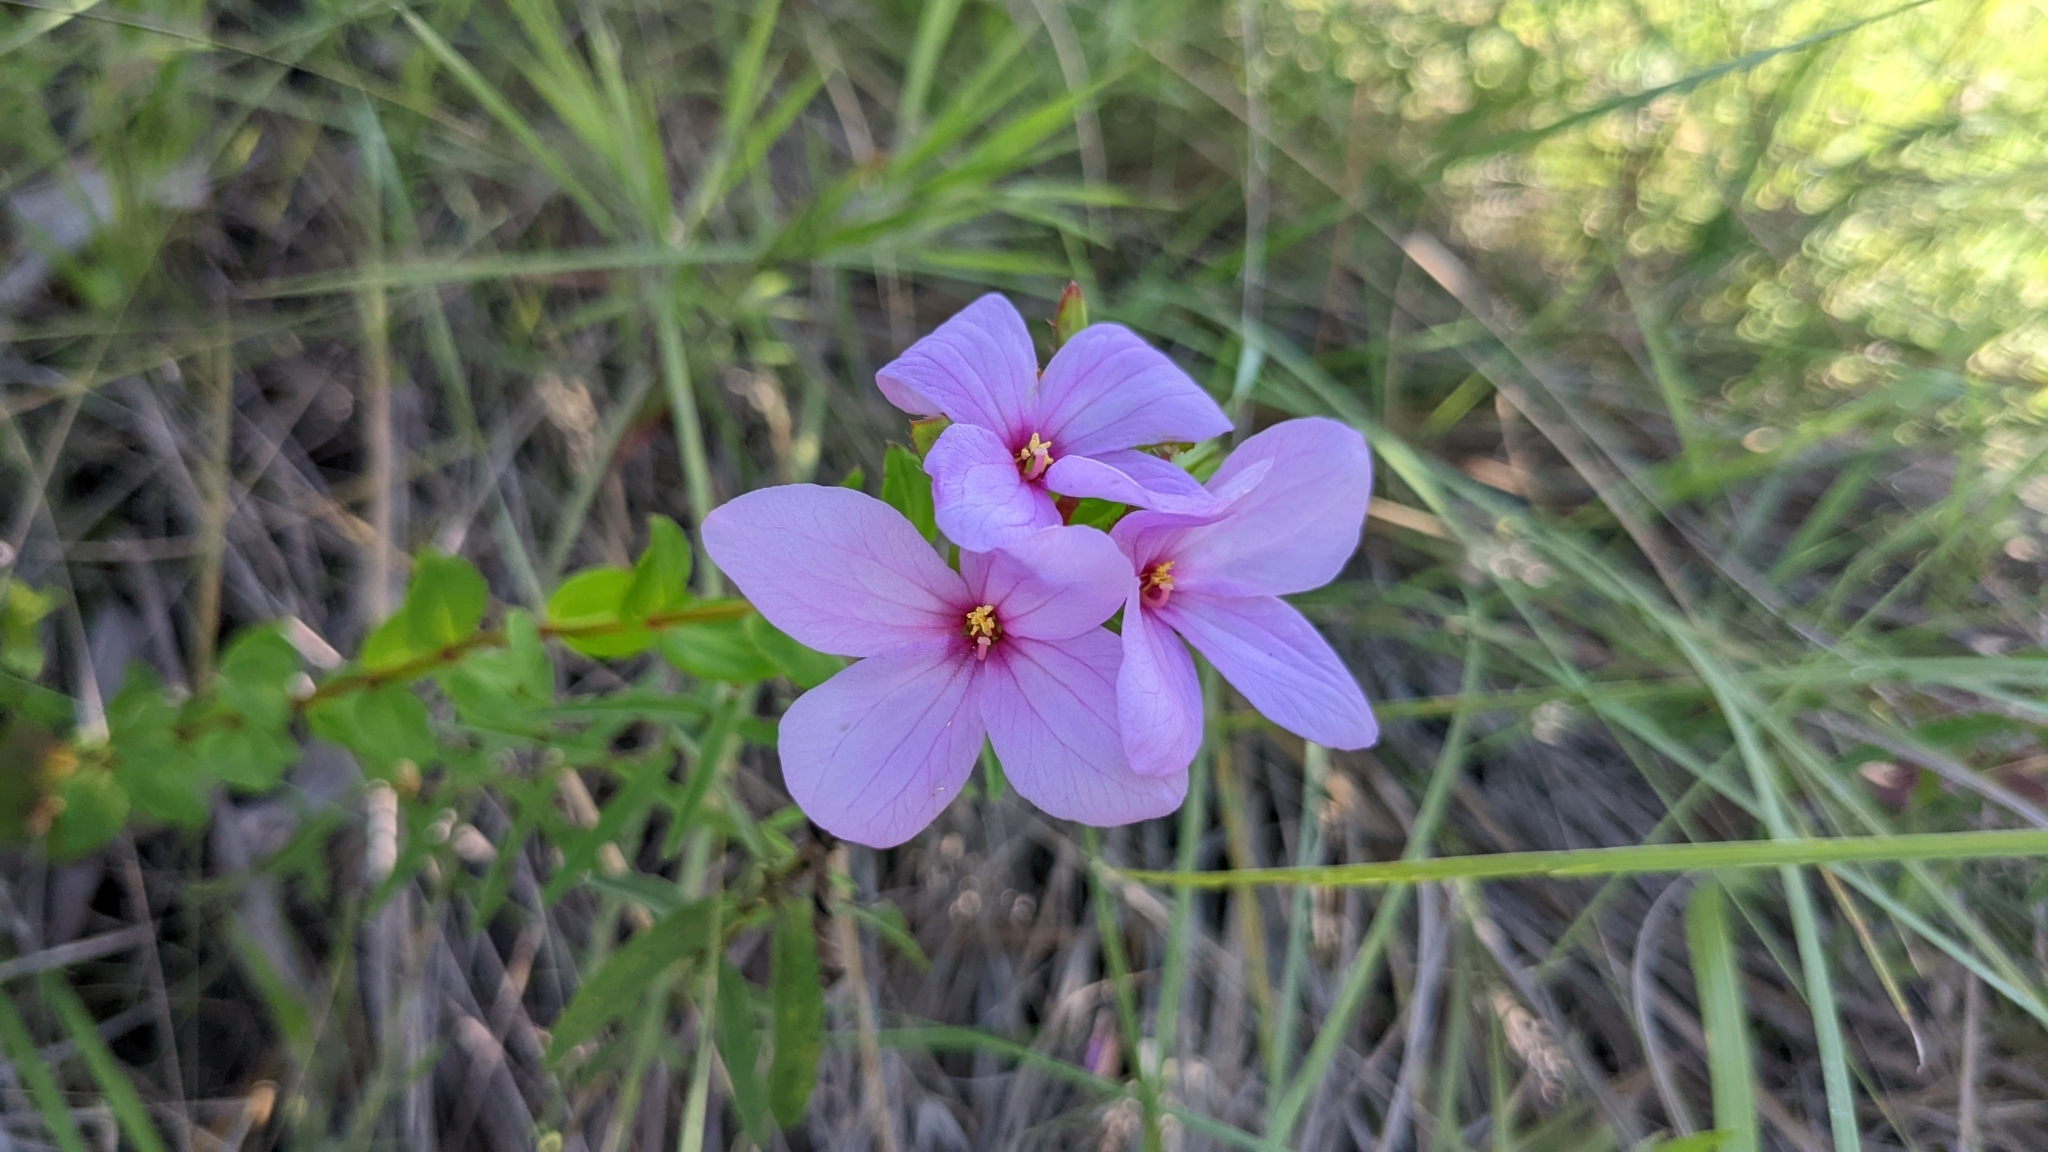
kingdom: Plantae
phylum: Tracheophyta
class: Magnoliopsida
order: Myrtales
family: Melastomataceae
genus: Rhexia
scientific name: Rhexia petiolata
